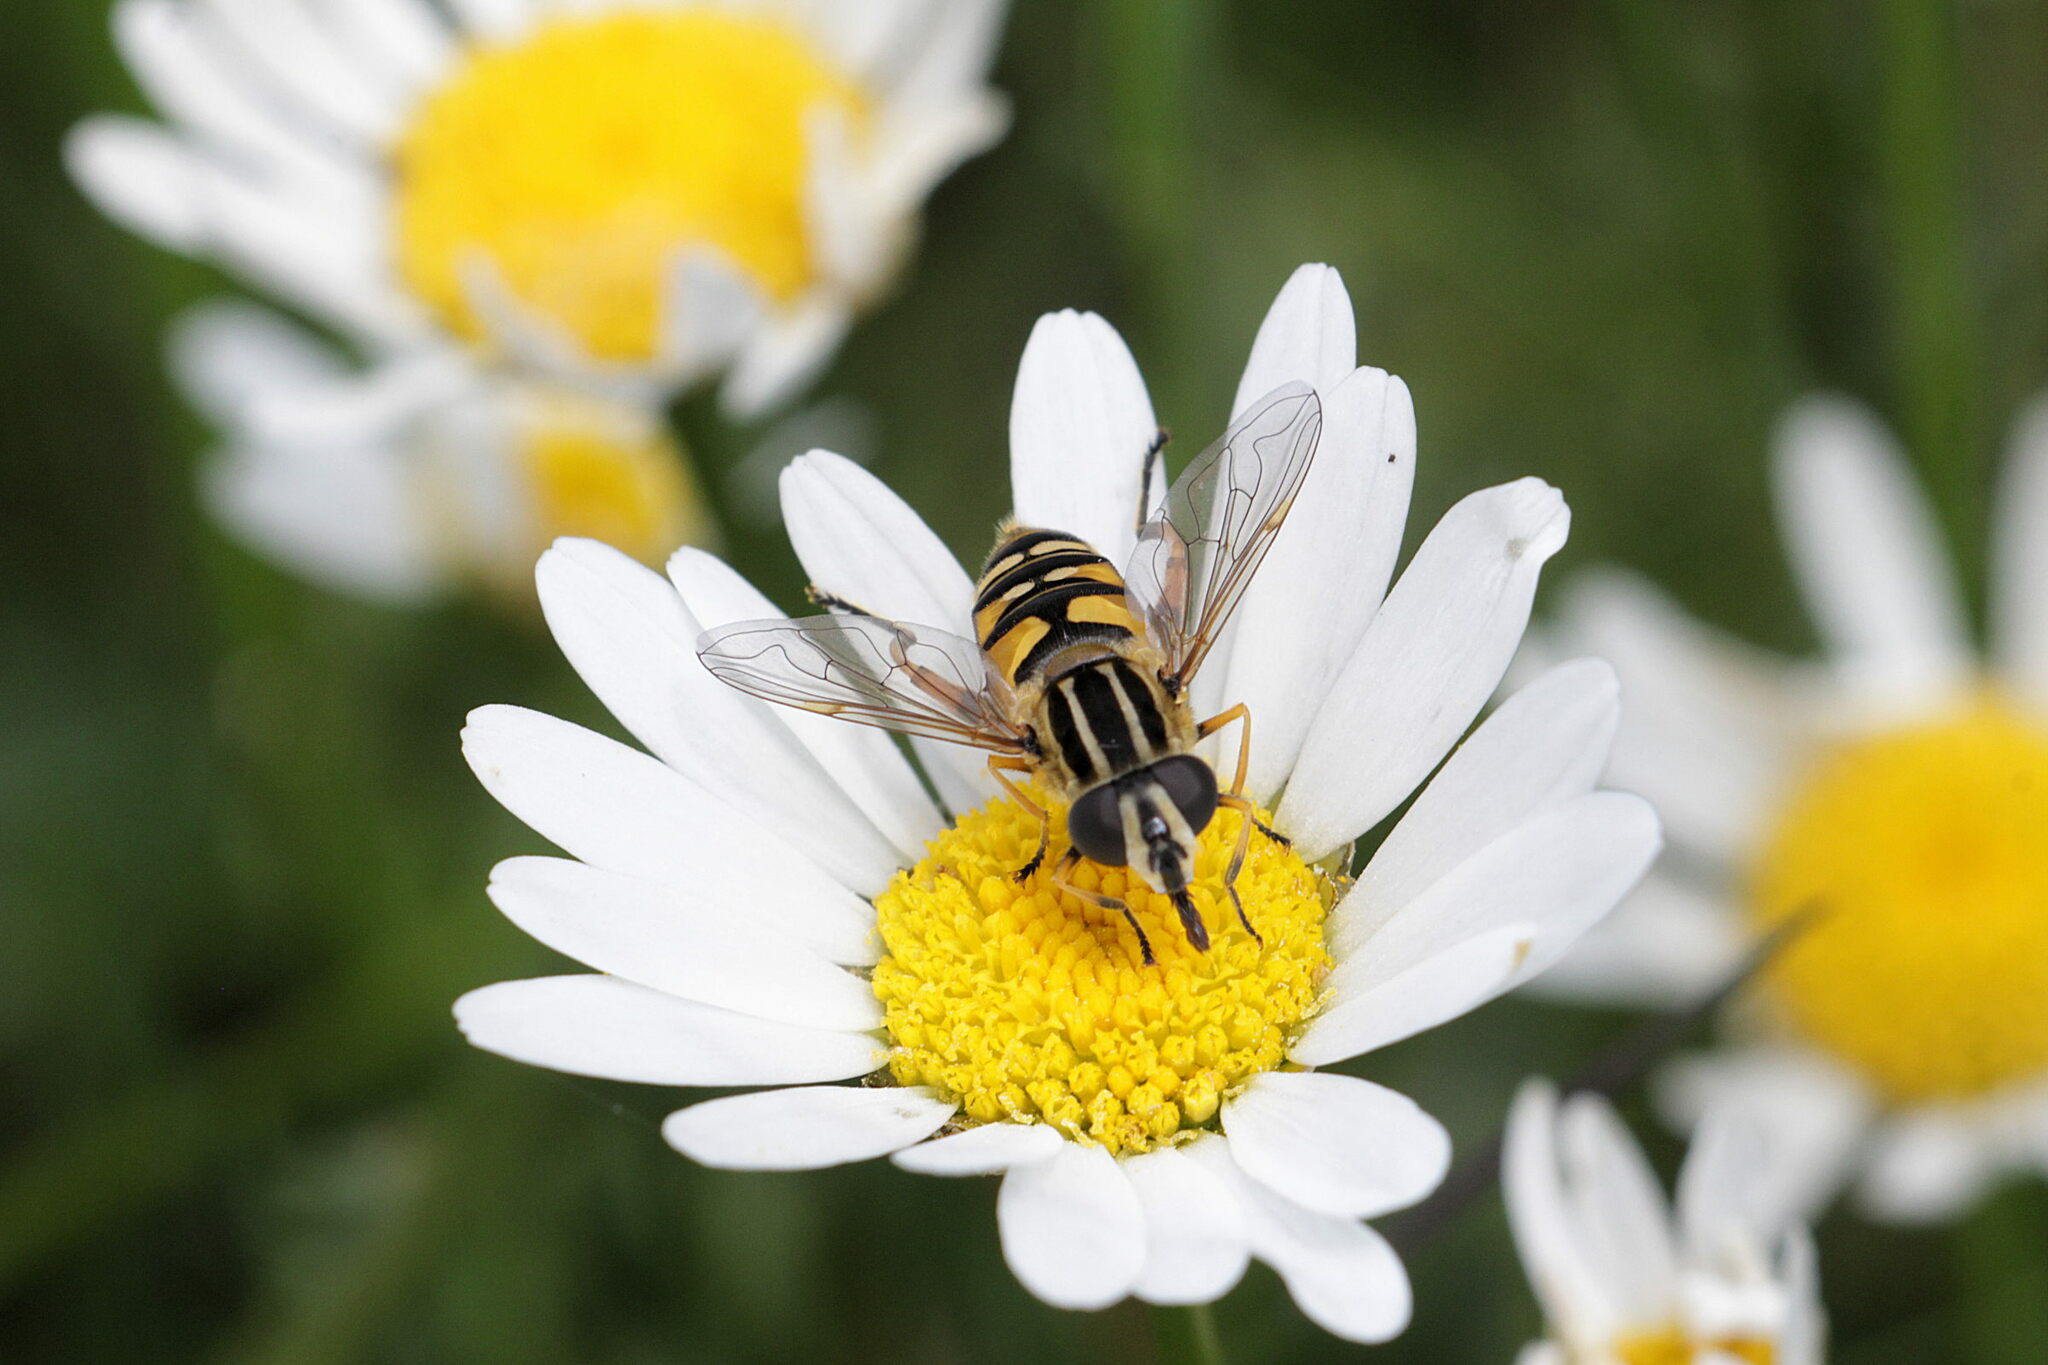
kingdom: Animalia
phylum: Arthropoda
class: Insecta
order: Diptera
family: Syrphidae
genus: Helophilus
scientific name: Helophilus pendulus
